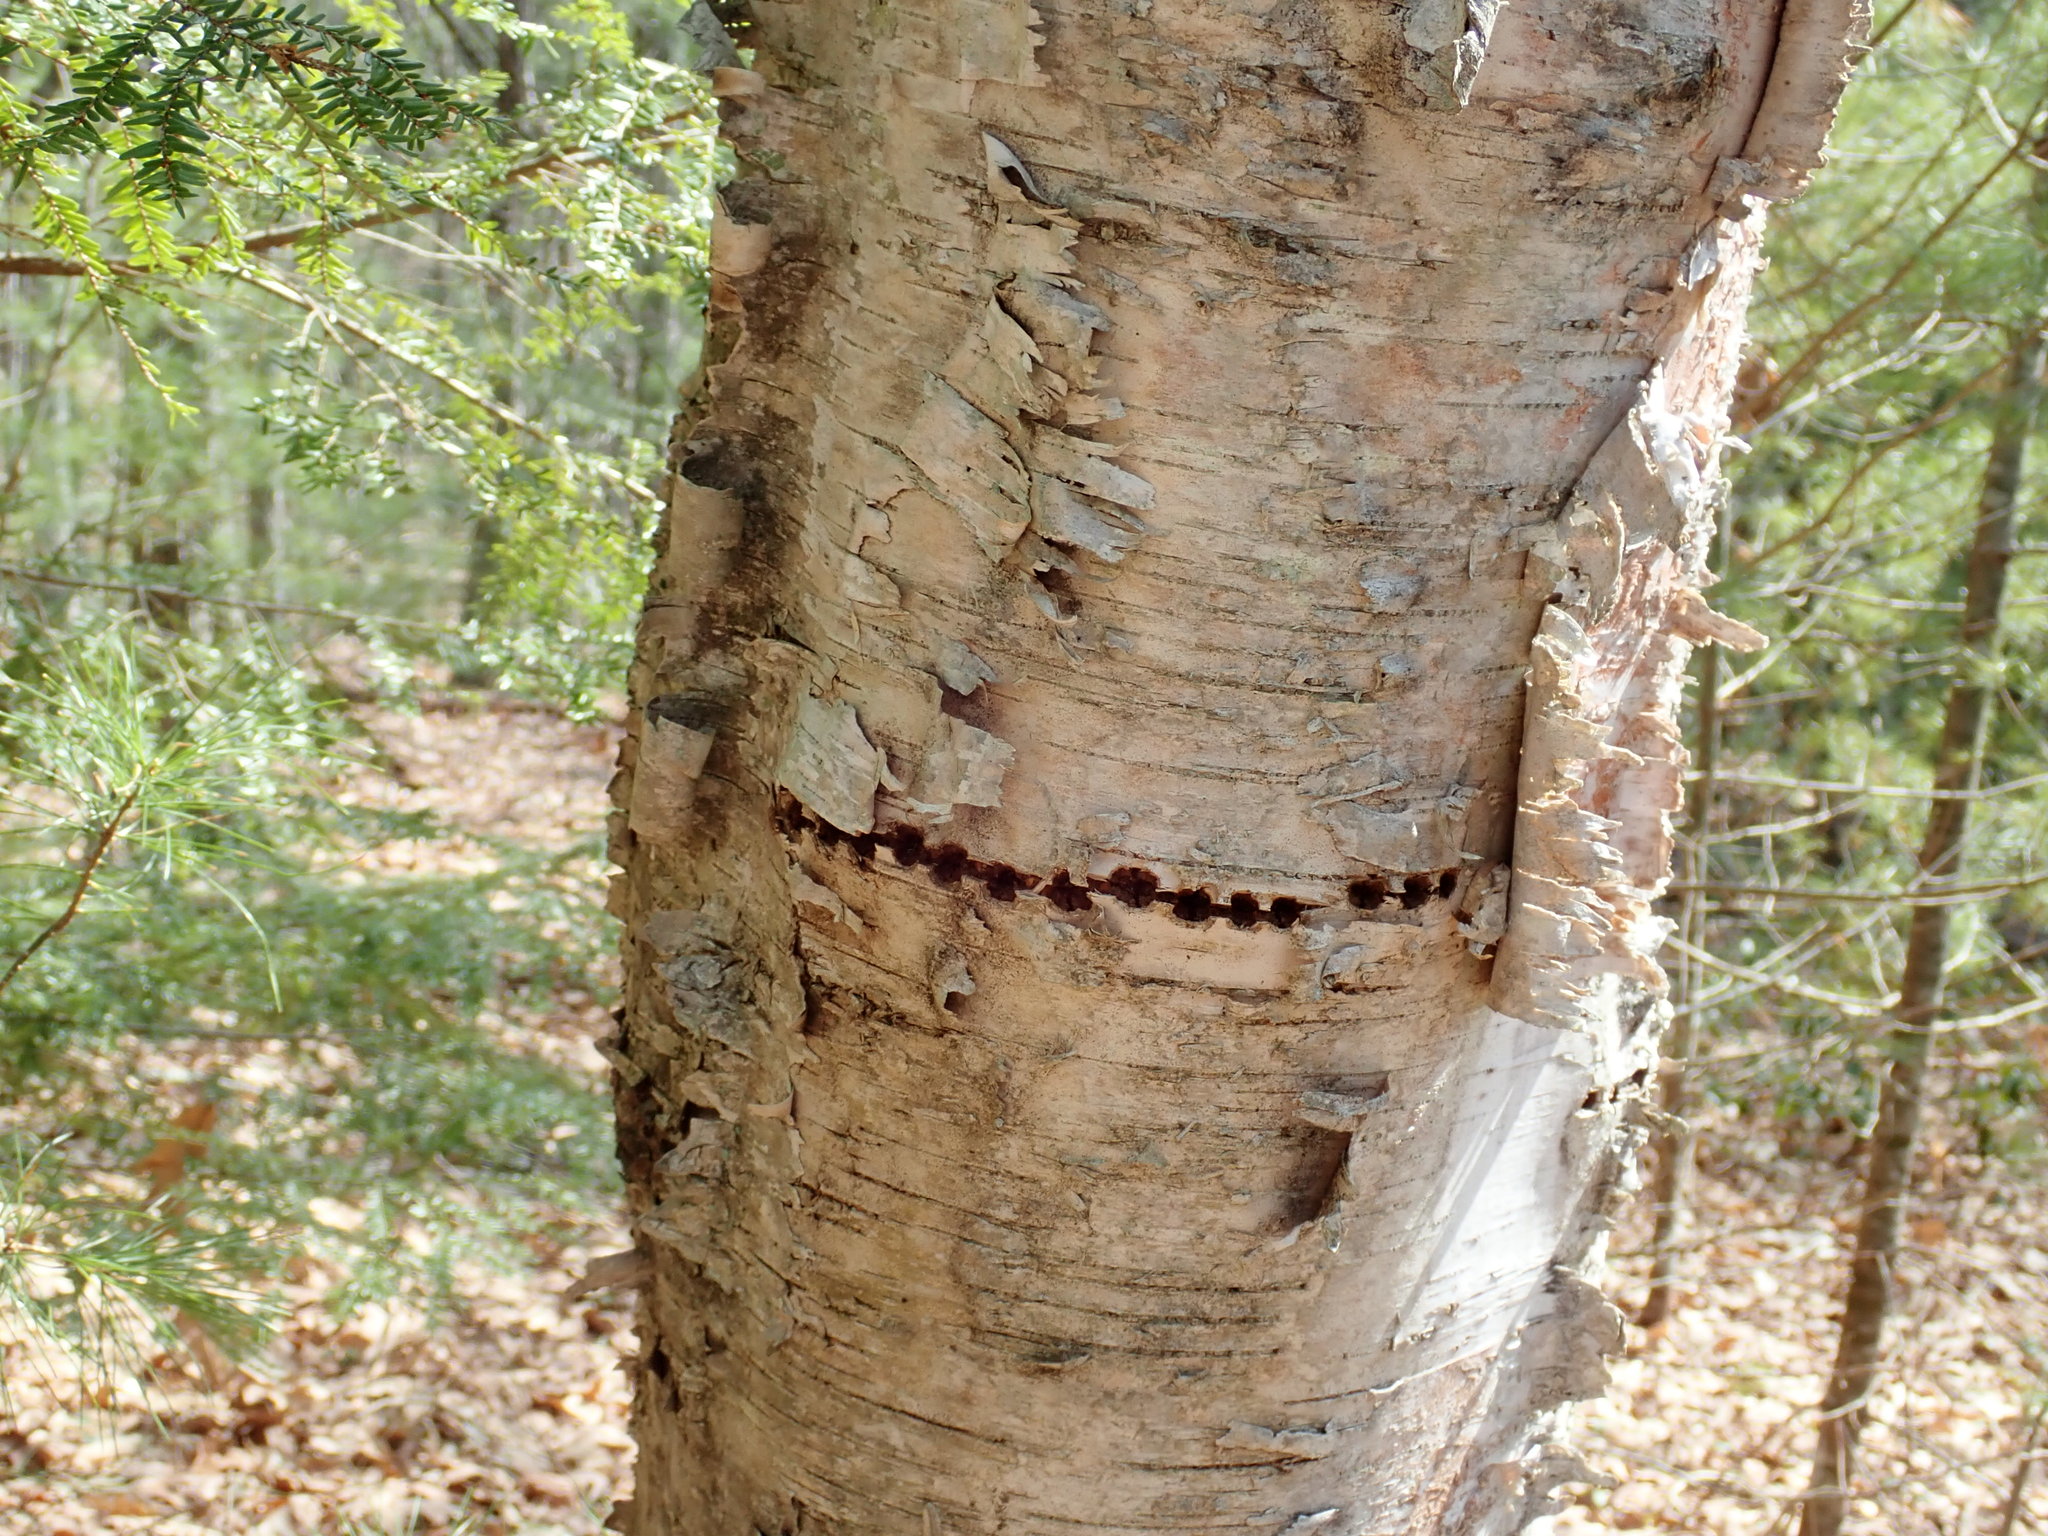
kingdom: Animalia
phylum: Chordata
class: Aves
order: Piciformes
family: Picidae
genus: Sphyrapicus
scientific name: Sphyrapicus varius
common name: Yellow-bellied sapsucker
